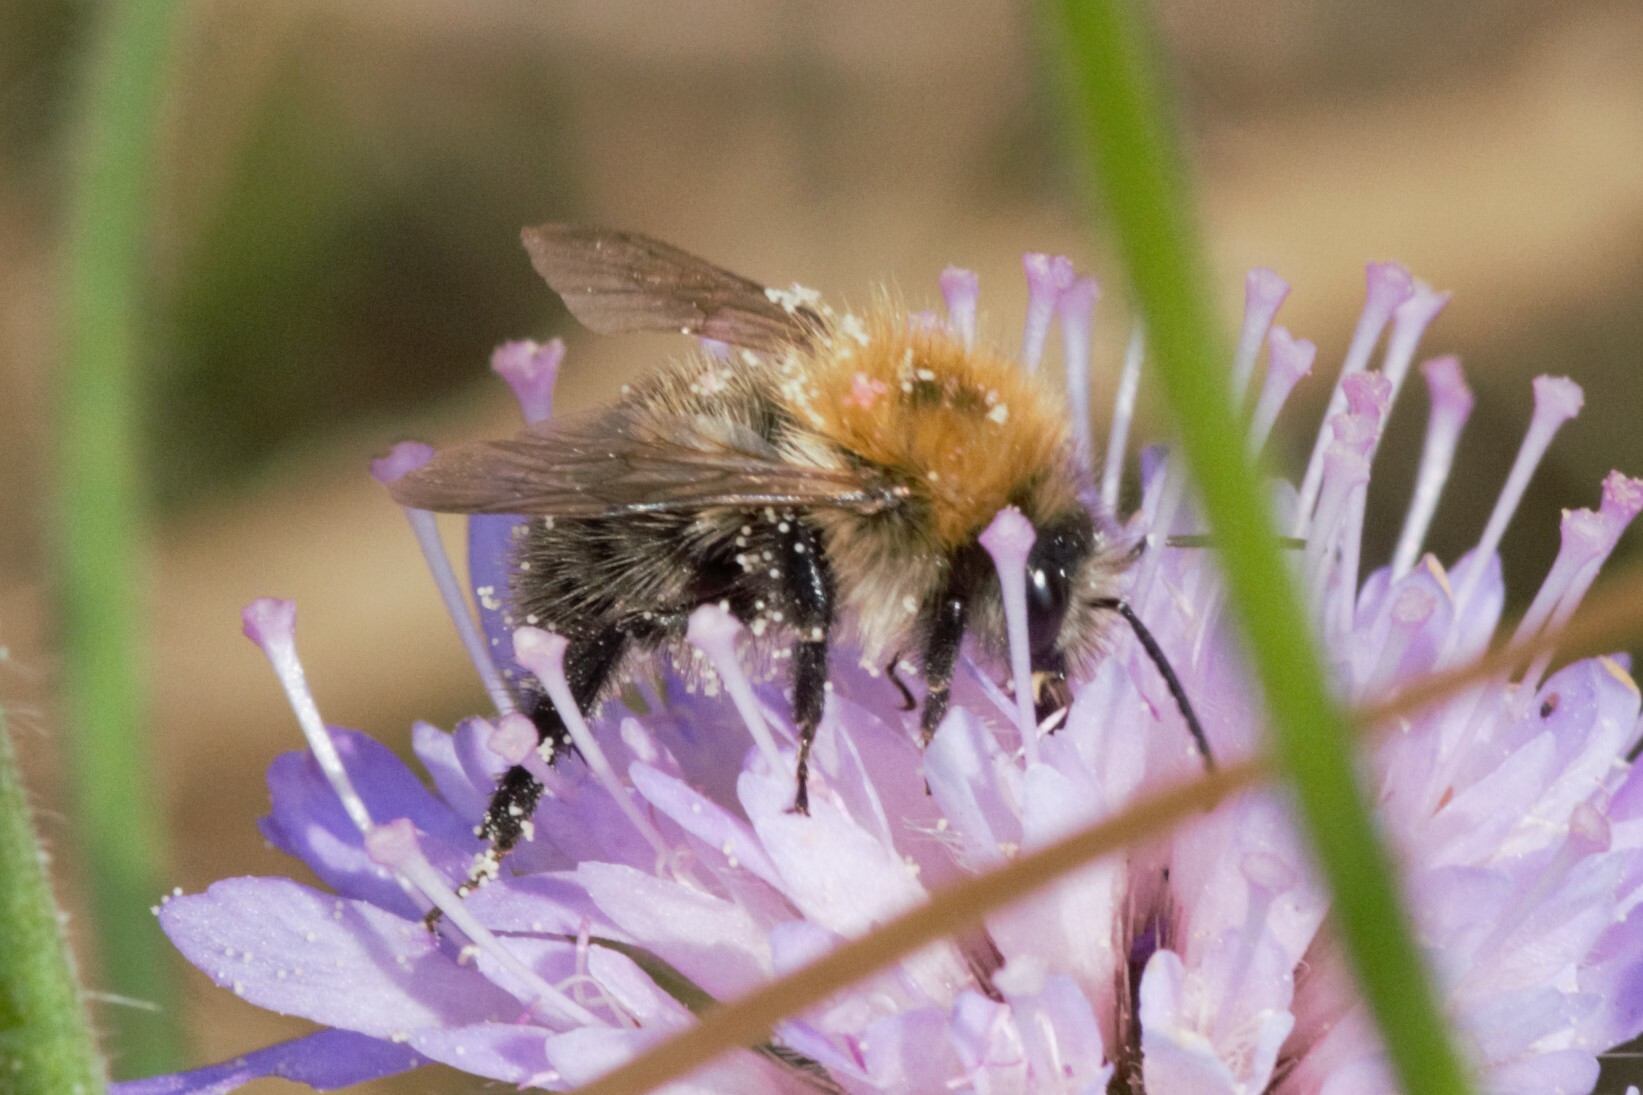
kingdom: Animalia
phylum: Arthropoda
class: Insecta
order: Hymenoptera
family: Apidae
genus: Bombus
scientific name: Bombus pascuorum
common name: Common carder bee
